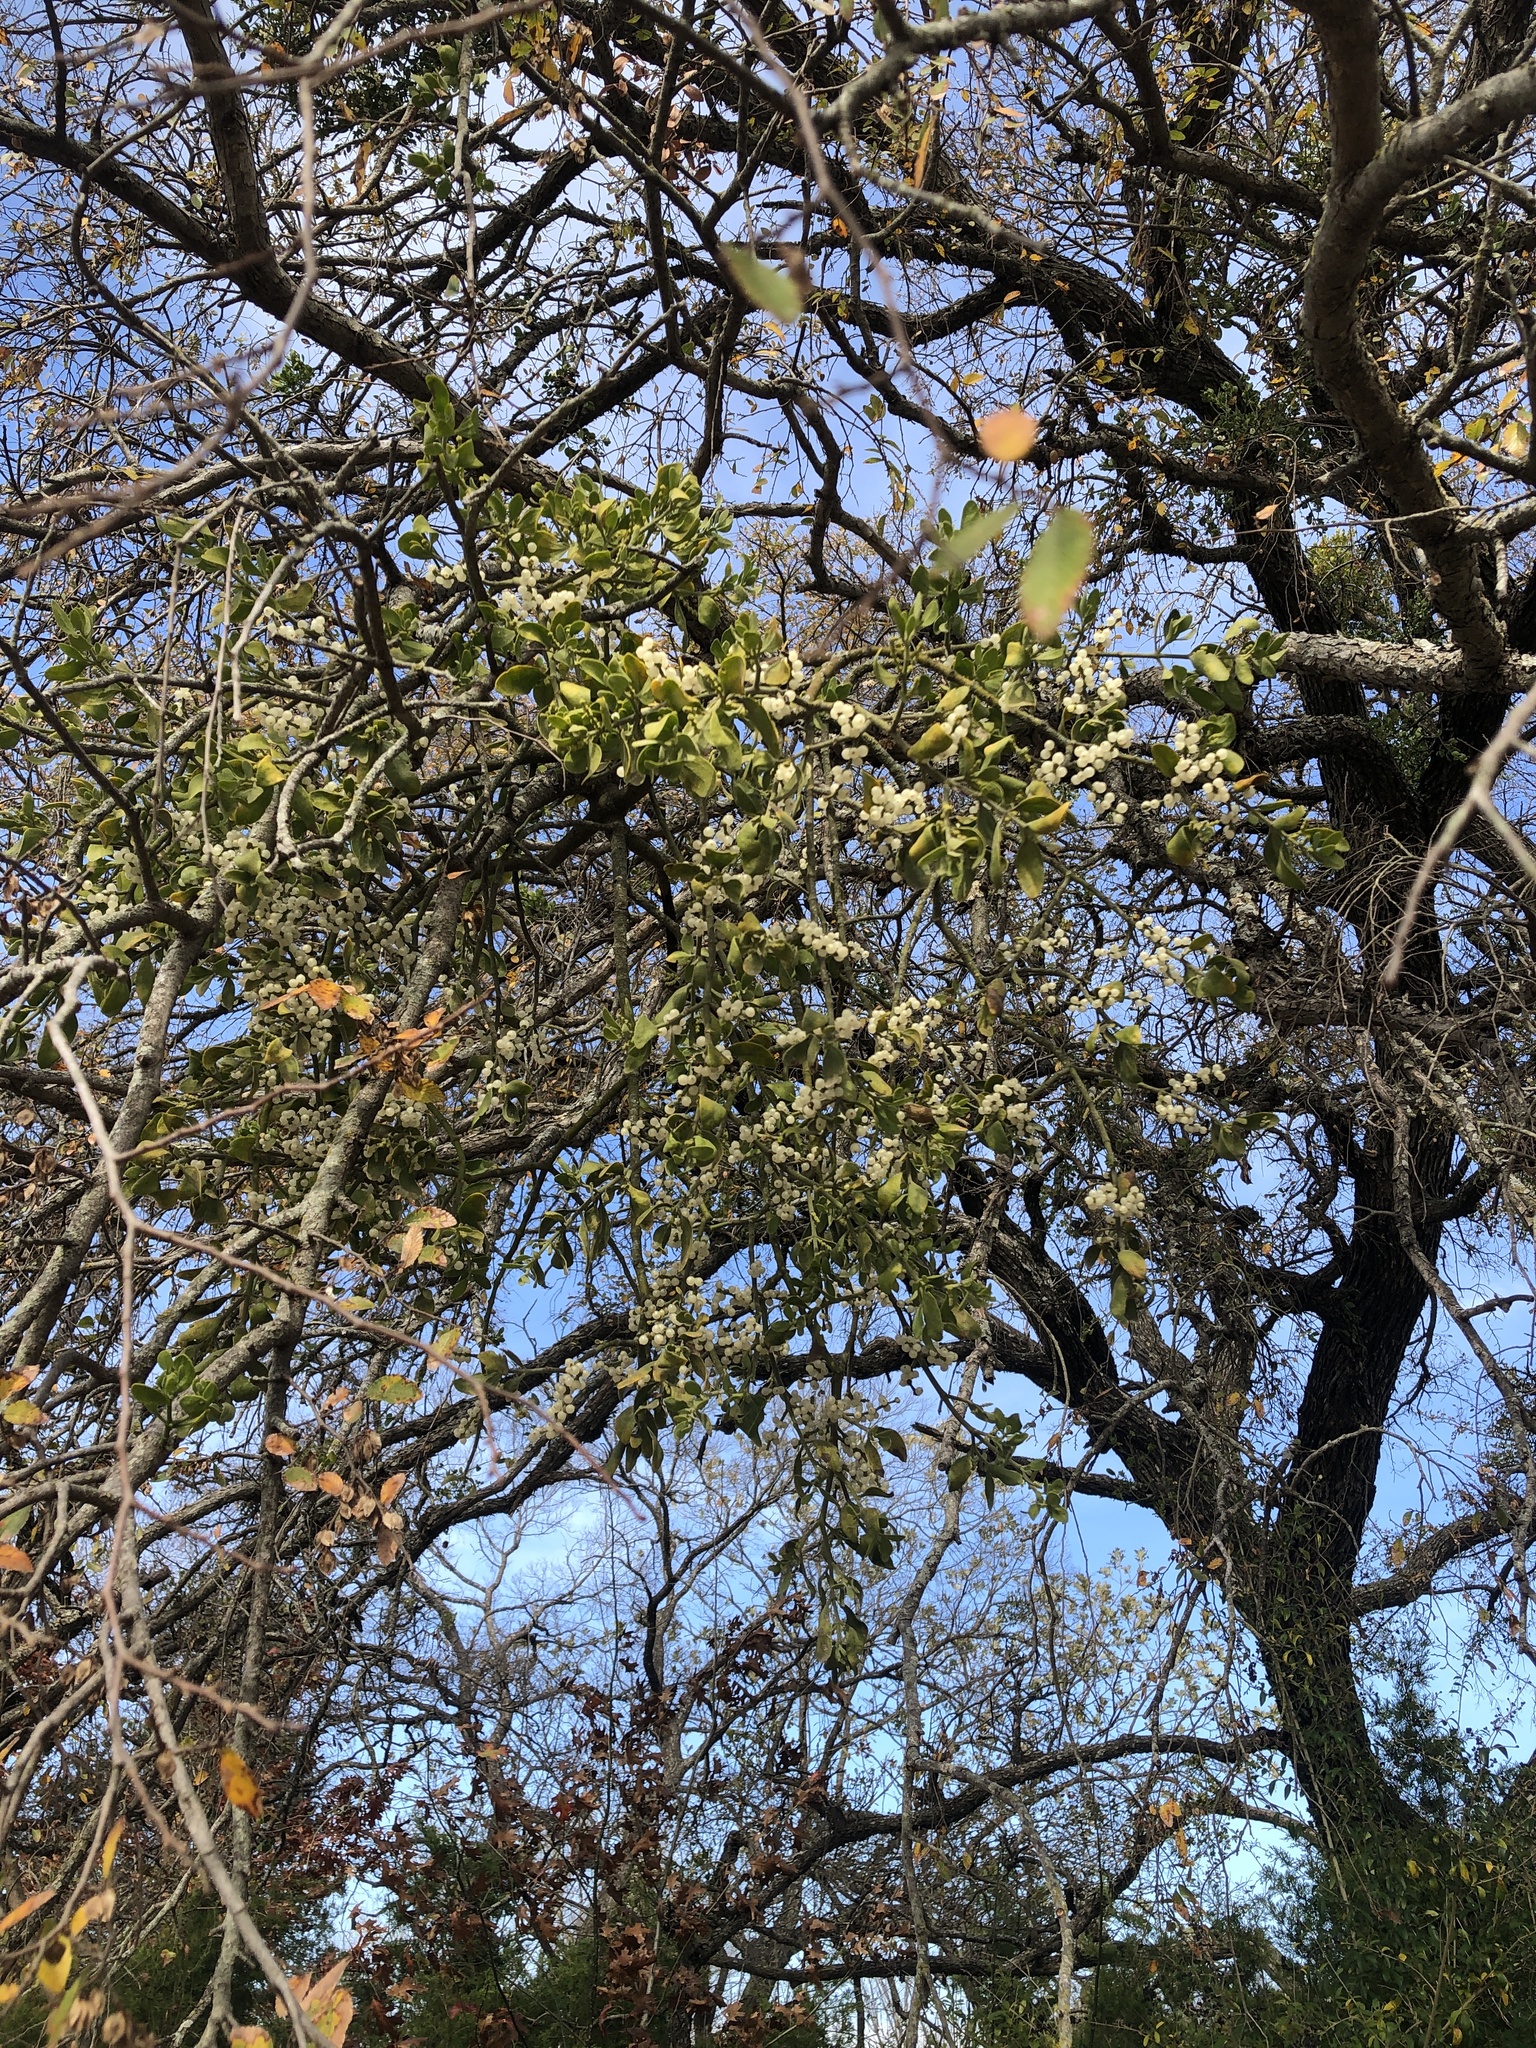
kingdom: Plantae
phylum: Tracheophyta
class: Magnoliopsida
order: Santalales
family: Viscaceae
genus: Phoradendron
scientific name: Phoradendron leucarpum
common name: Pacific mistletoe
